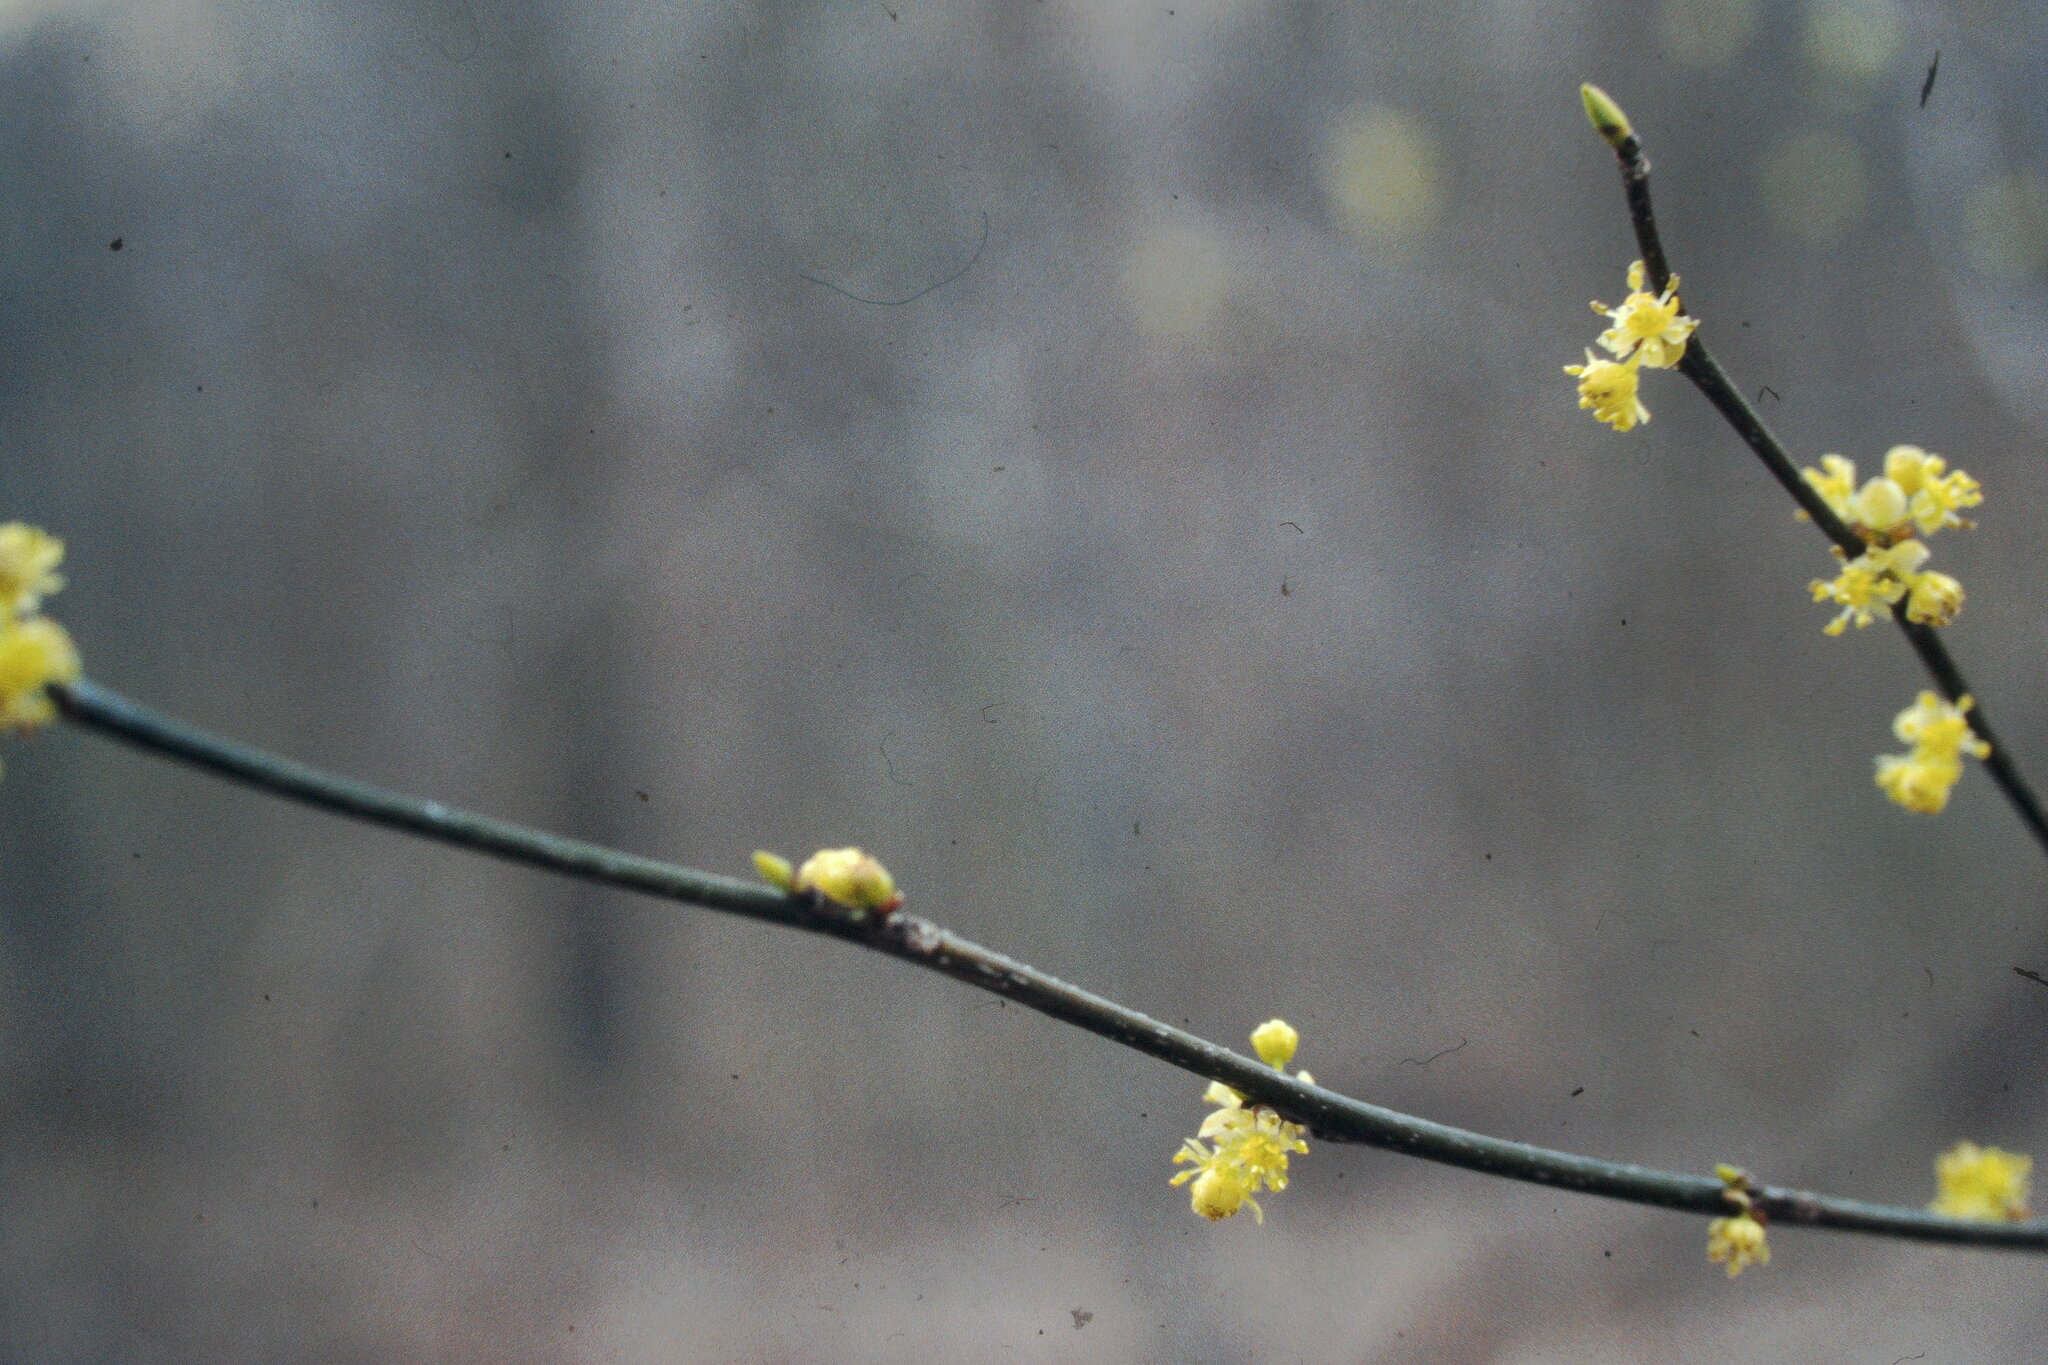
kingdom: Plantae
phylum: Tracheophyta
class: Magnoliopsida
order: Laurales
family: Lauraceae
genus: Lindera
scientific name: Lindera benzoin
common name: Spicebush
